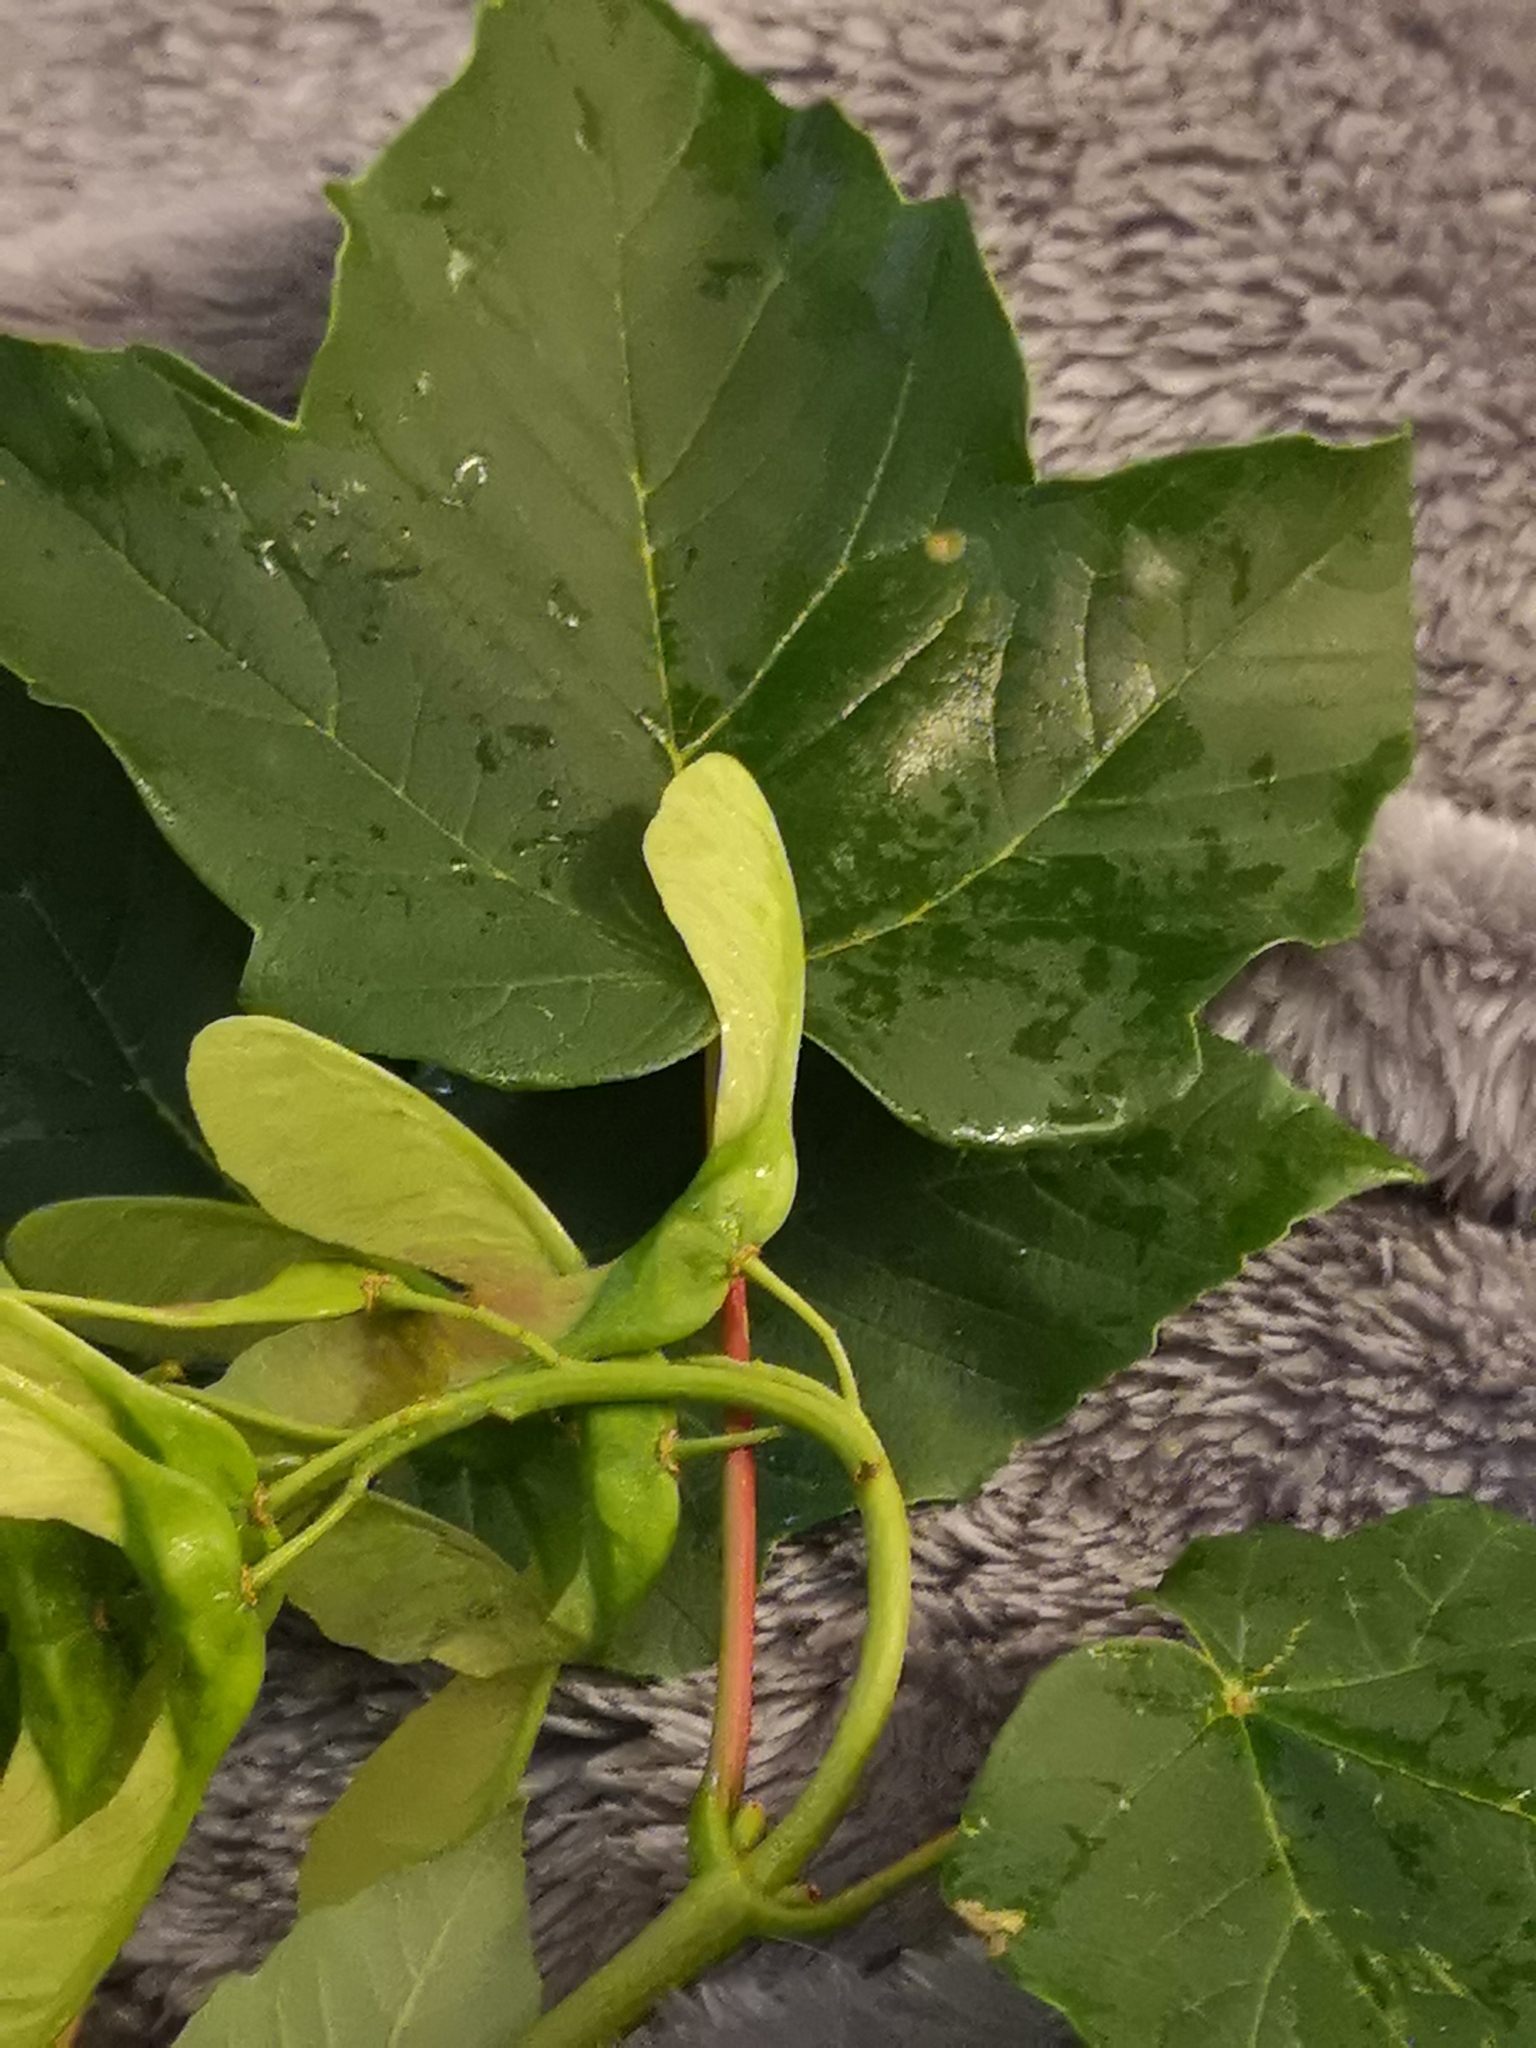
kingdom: Plantae
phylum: Tracheophyta
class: Magnoliopsida
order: Sapindales
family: Sapindaceae
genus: Acer
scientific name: Acer pseudoplatanus
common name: Sycamore
